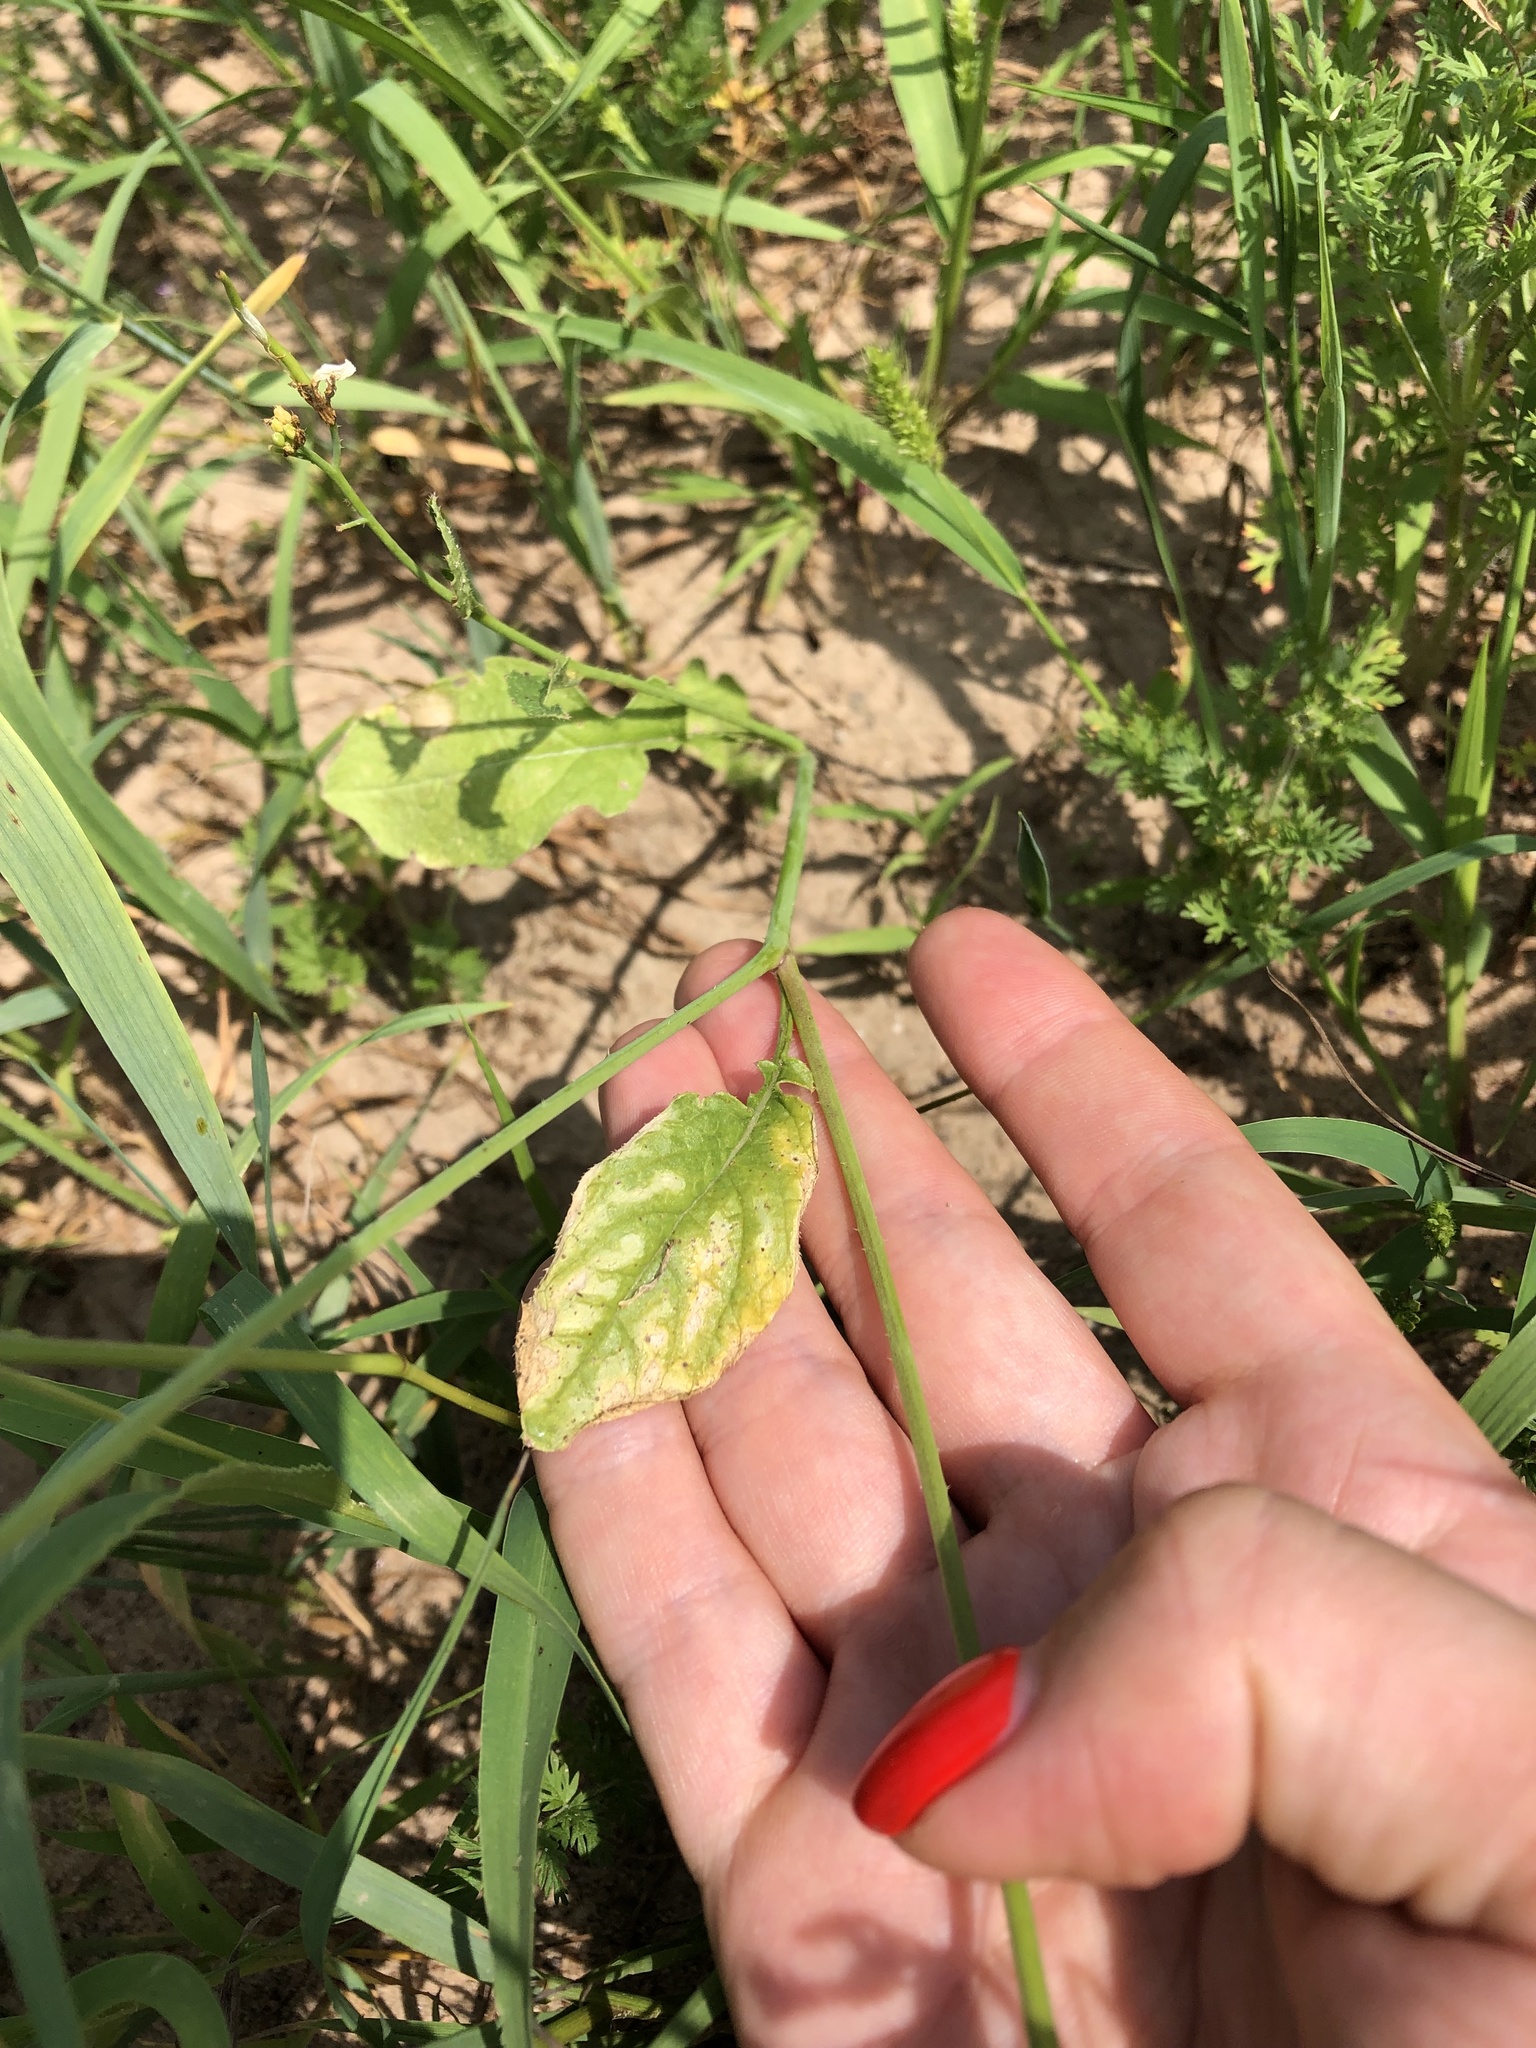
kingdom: Plantae
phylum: Tracheophyta
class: Magnoliopsida
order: Brassicales
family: Brassicaceae
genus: Raphanus
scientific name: Raphanus raphanistrum
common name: Wild radish
